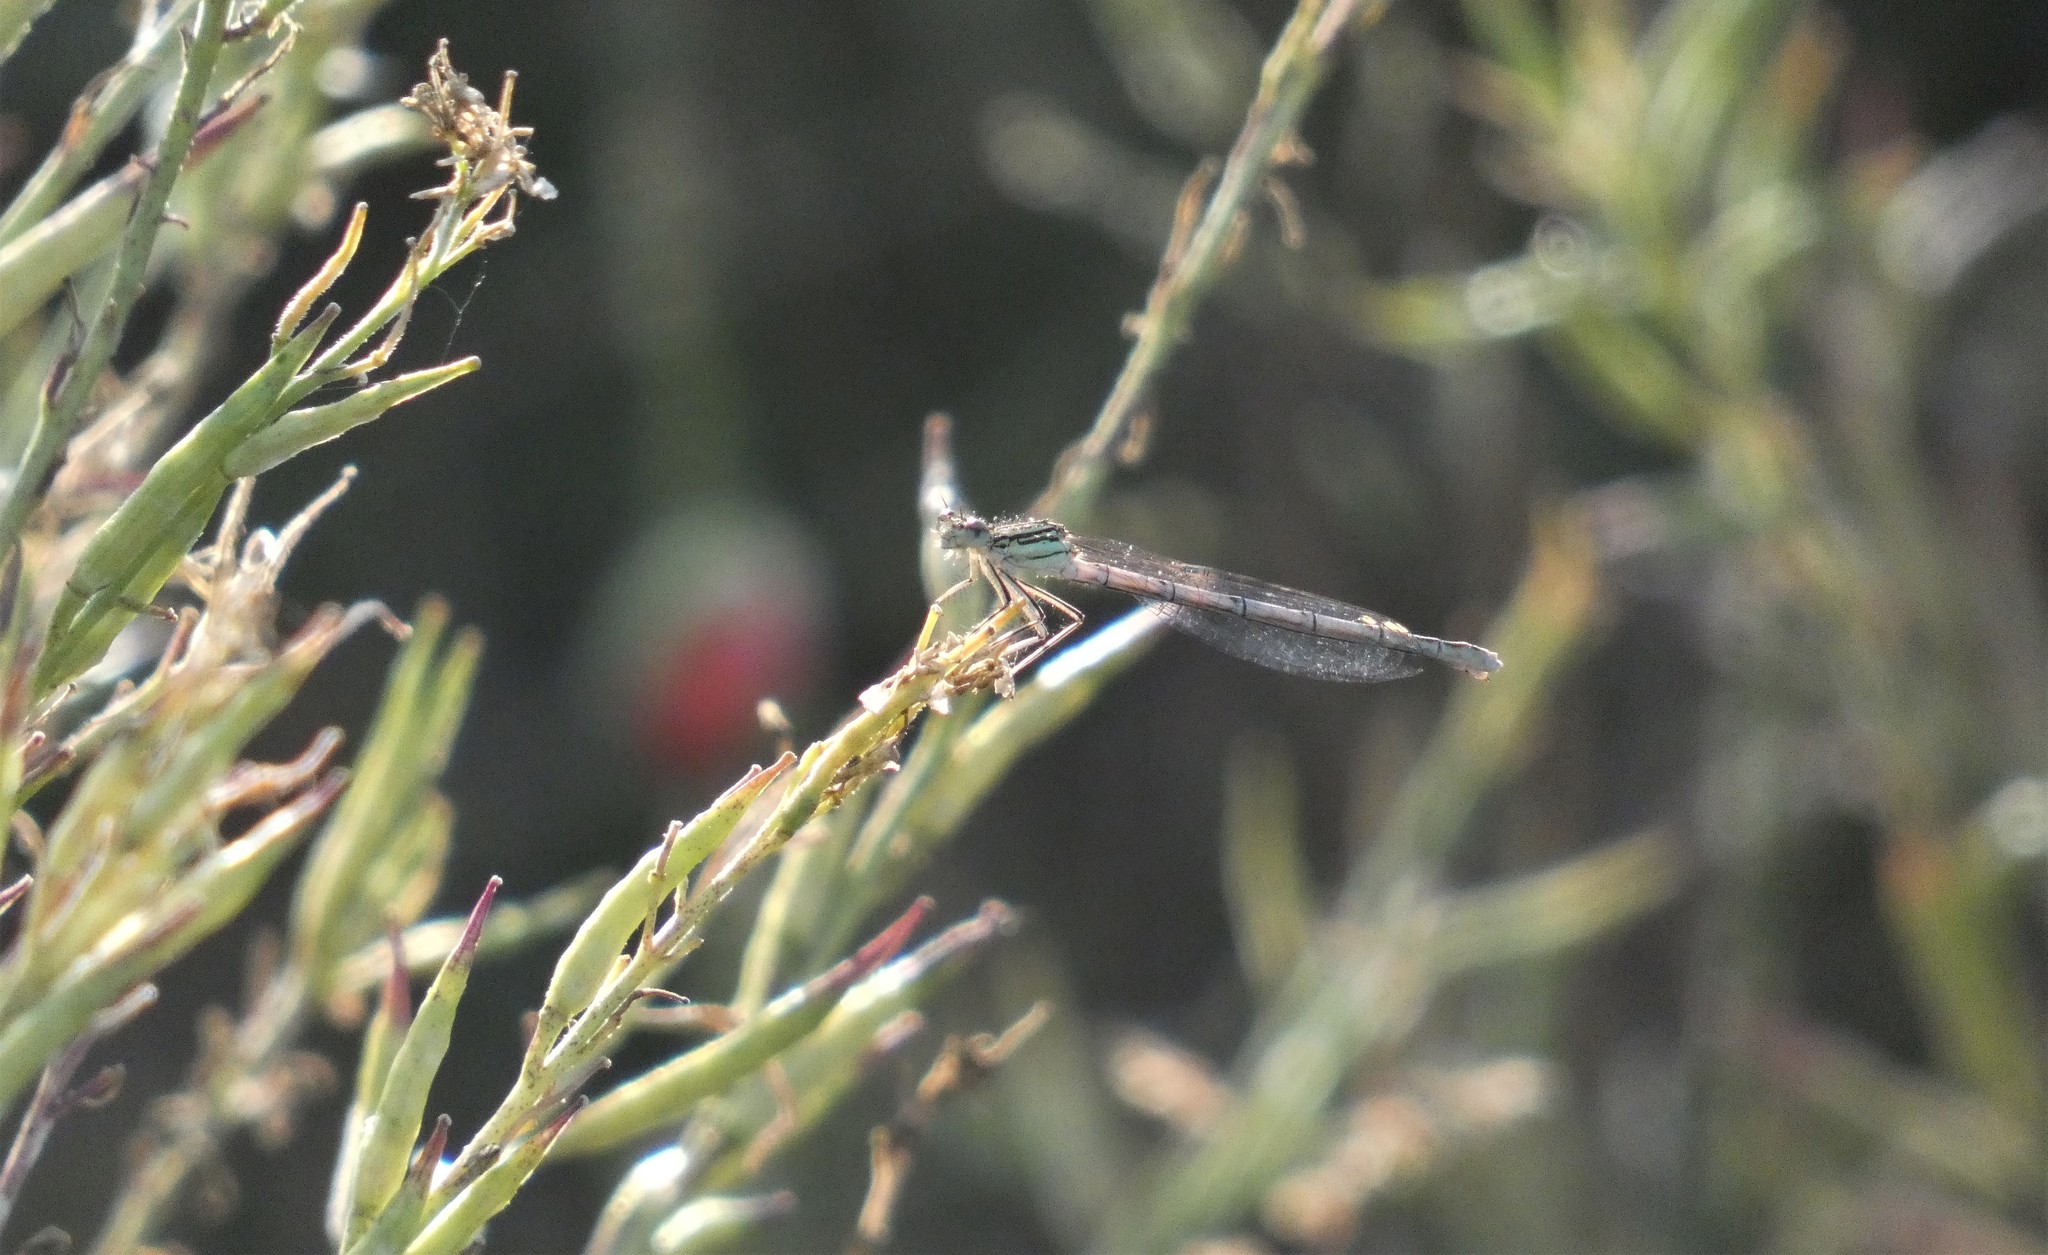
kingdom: Animalia
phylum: Arthropoda
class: Insecta
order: Odonata
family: Platycnemididae
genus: Platycnemis
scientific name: Platycnemis pennipes
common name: White-legged damselfly
